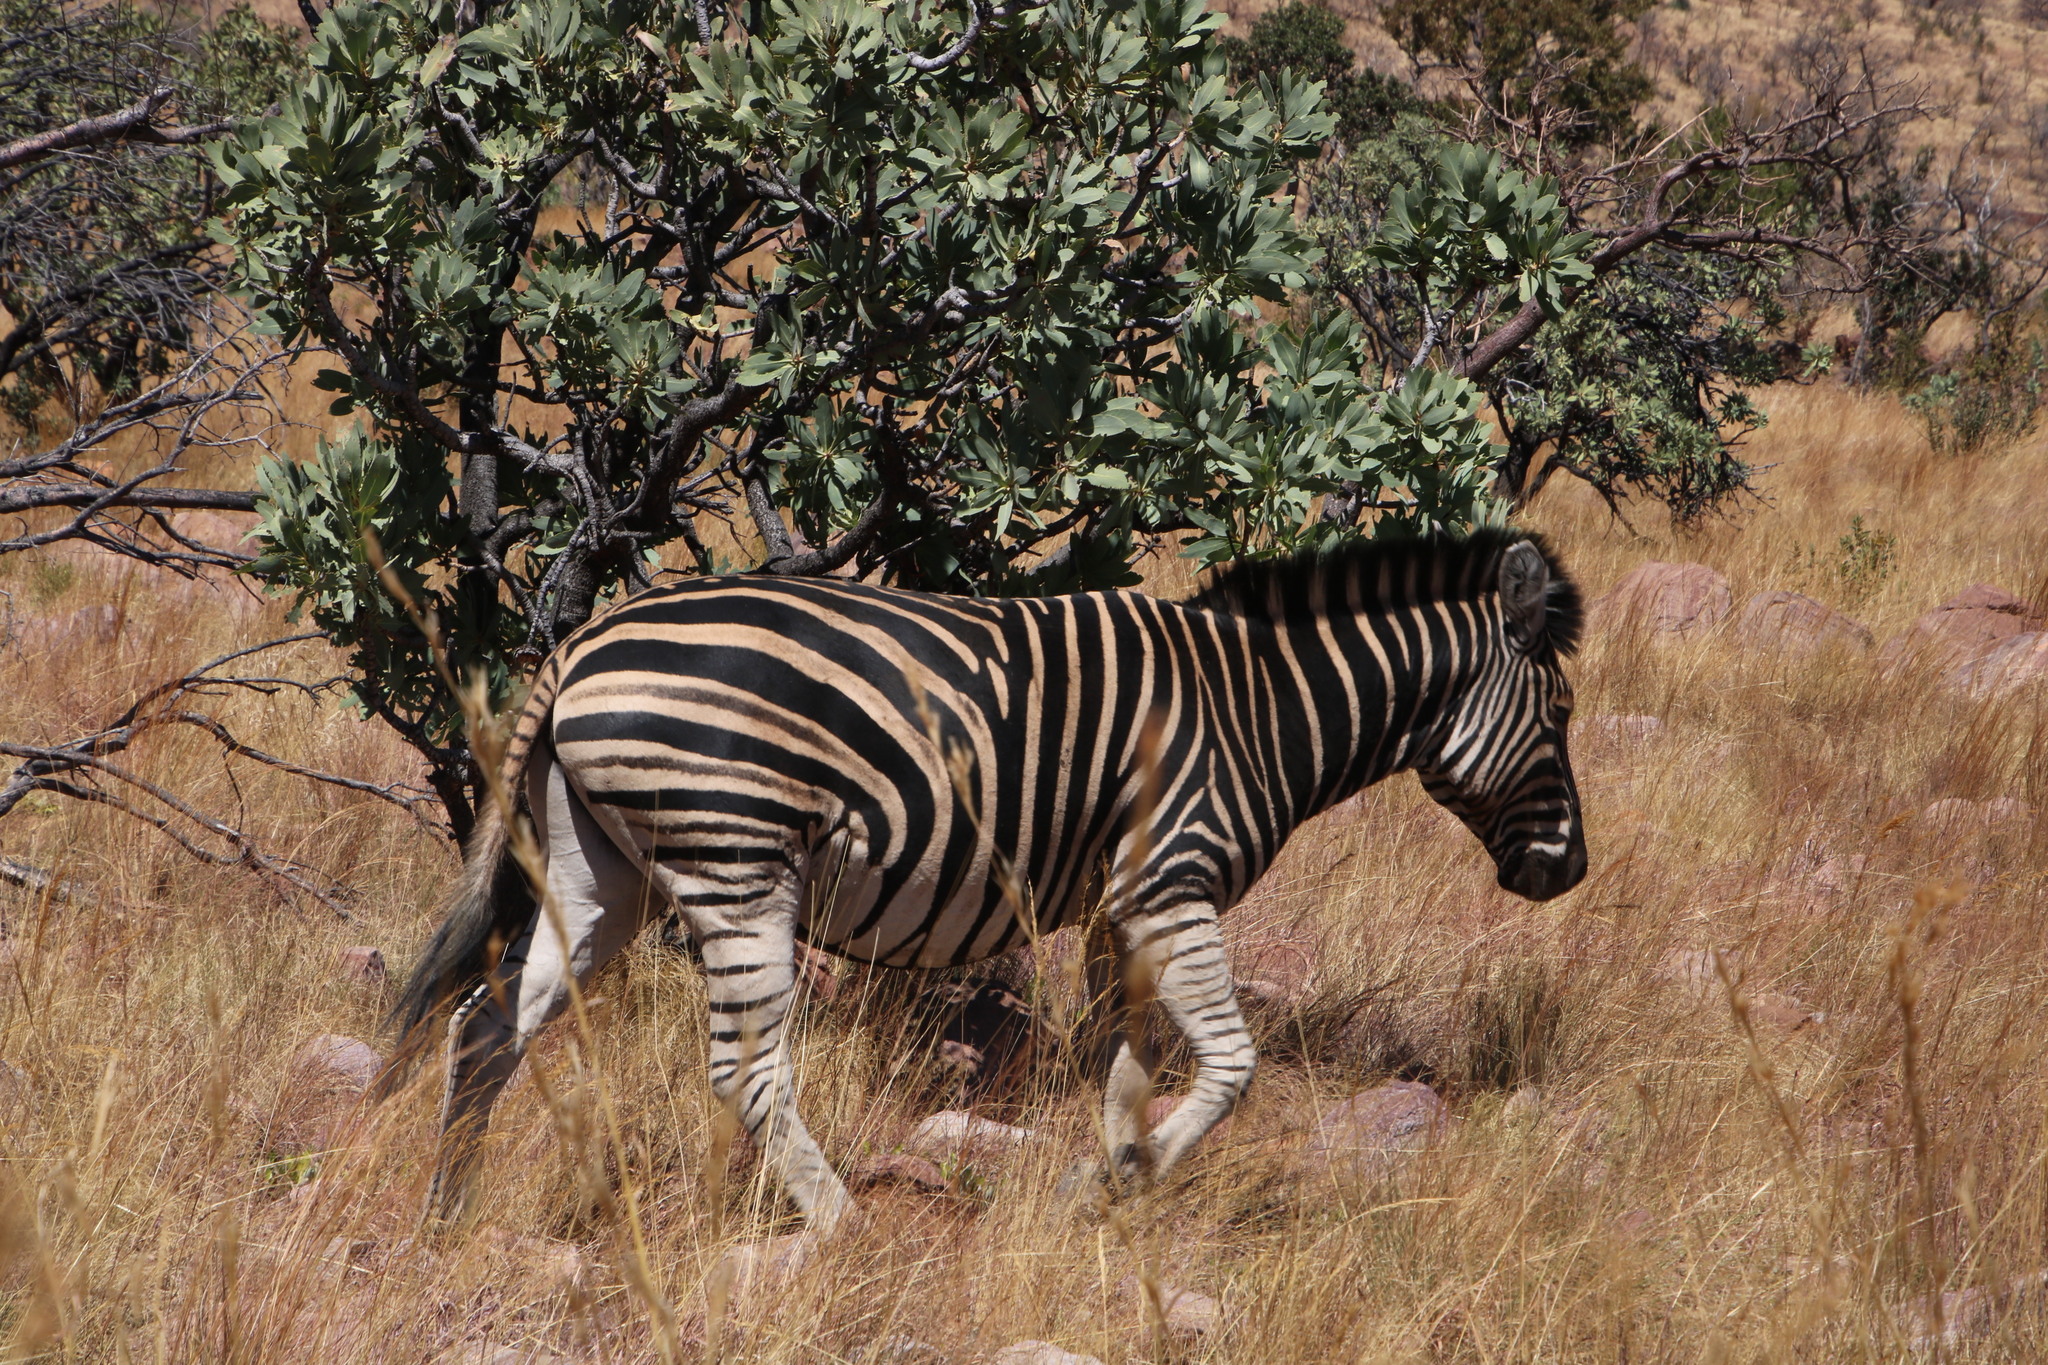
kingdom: Animalia
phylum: Chordata
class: Mammalia
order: Perissodactyla
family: Equidae
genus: Equus
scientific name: Equus quagga
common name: Plains zebra
